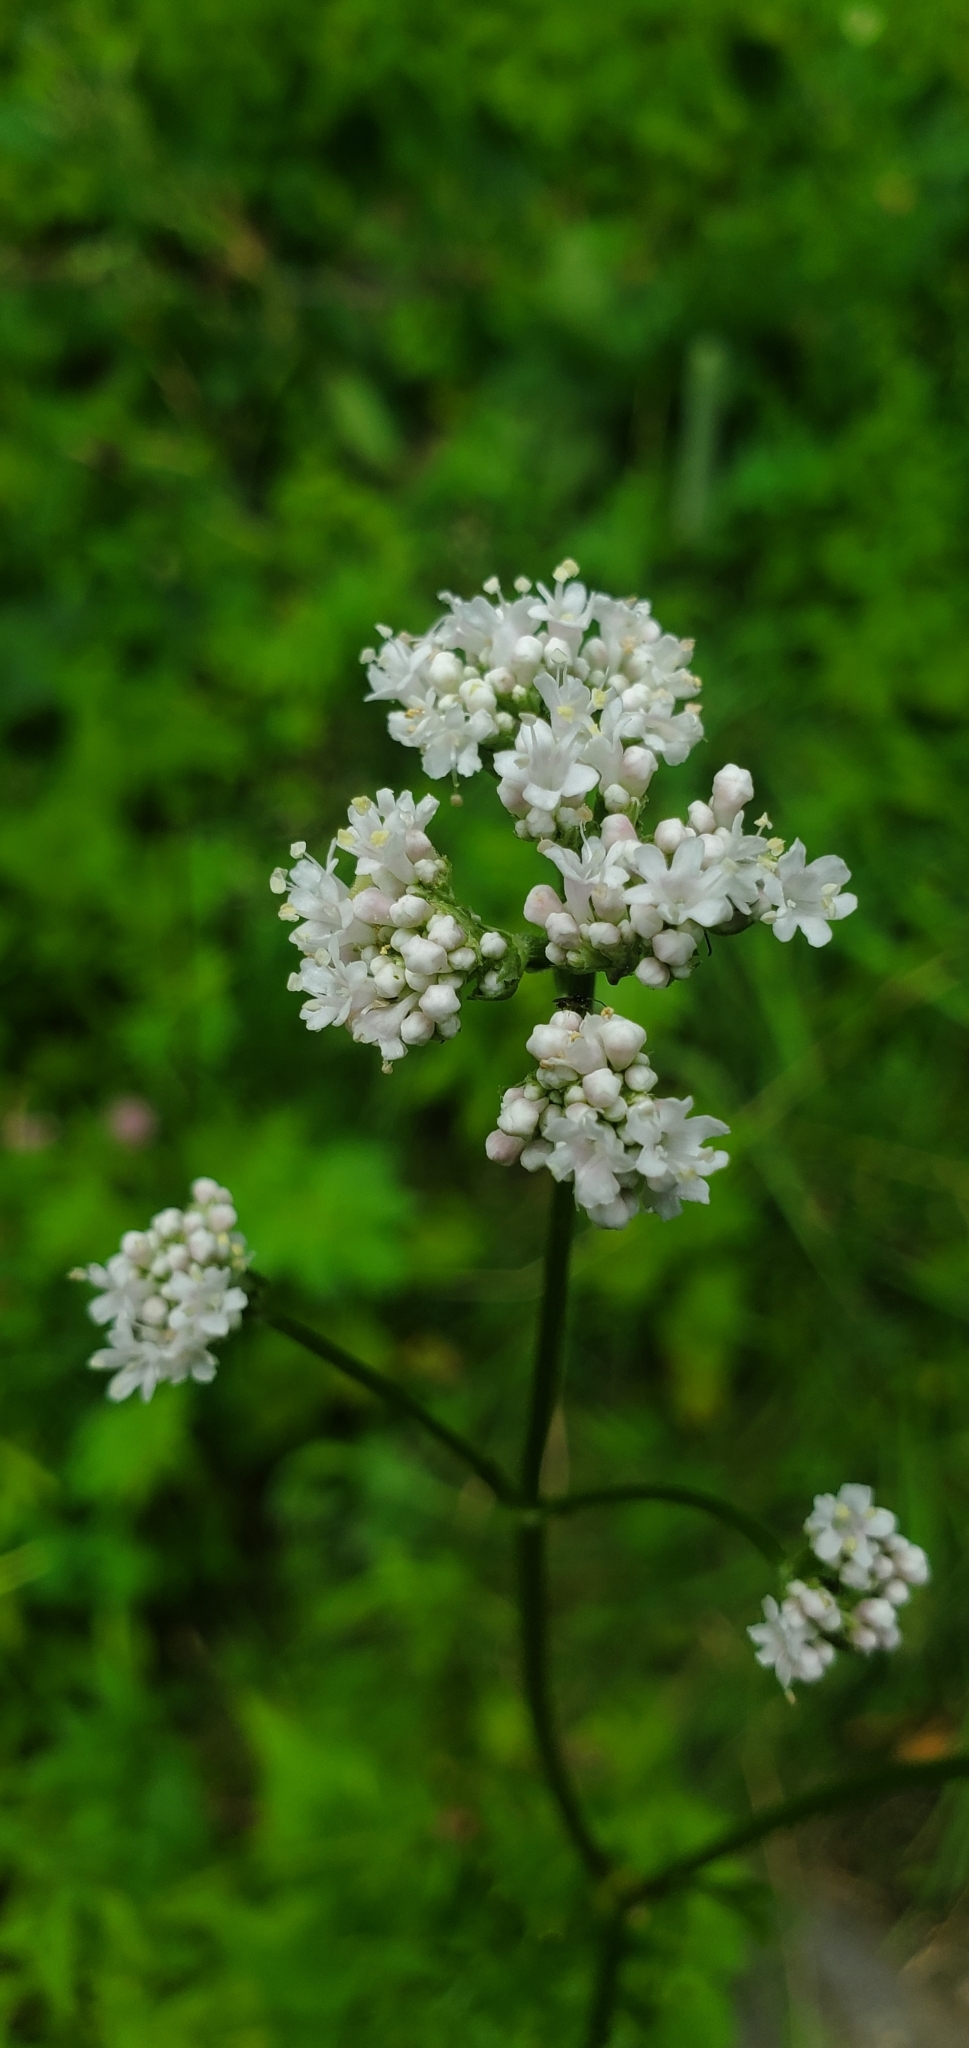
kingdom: Plantae
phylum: Tracheophyta
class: Magnoliopsida
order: Dipsacales
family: Caprifoliaceae
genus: Valeriana
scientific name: Valeriana officinalis
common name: Common valerian
